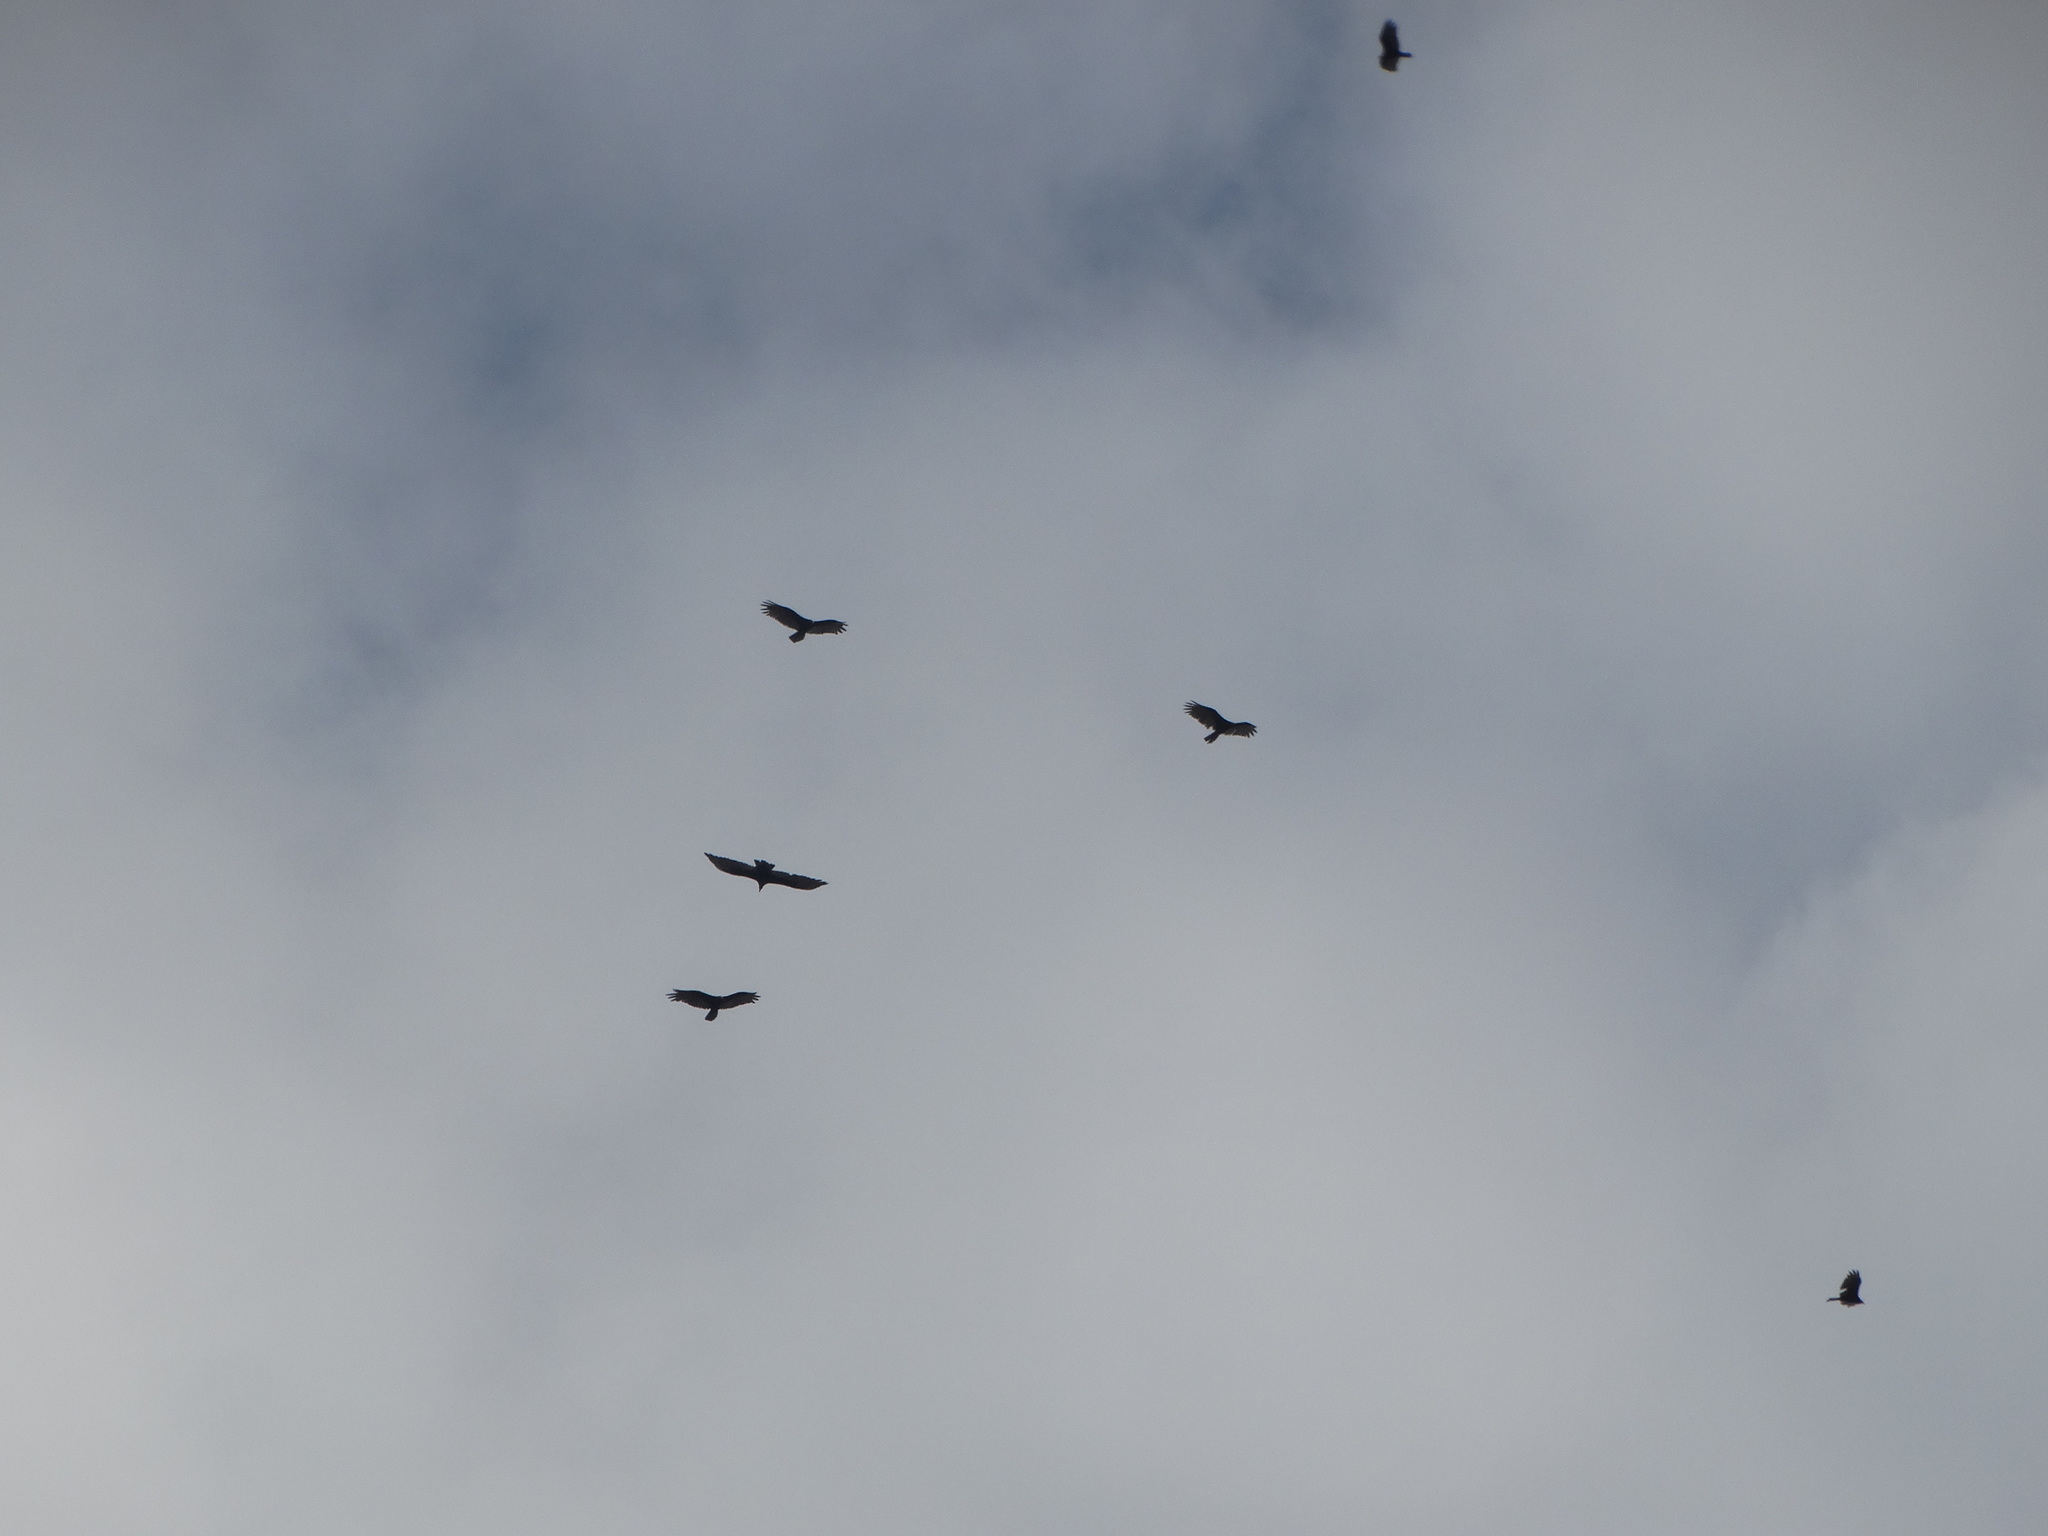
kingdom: Animalia
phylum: Chordata
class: Aves
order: Accipitriformes
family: Cathartidae
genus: Cathartes
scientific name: Cathartes aura
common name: Turkey vulture
